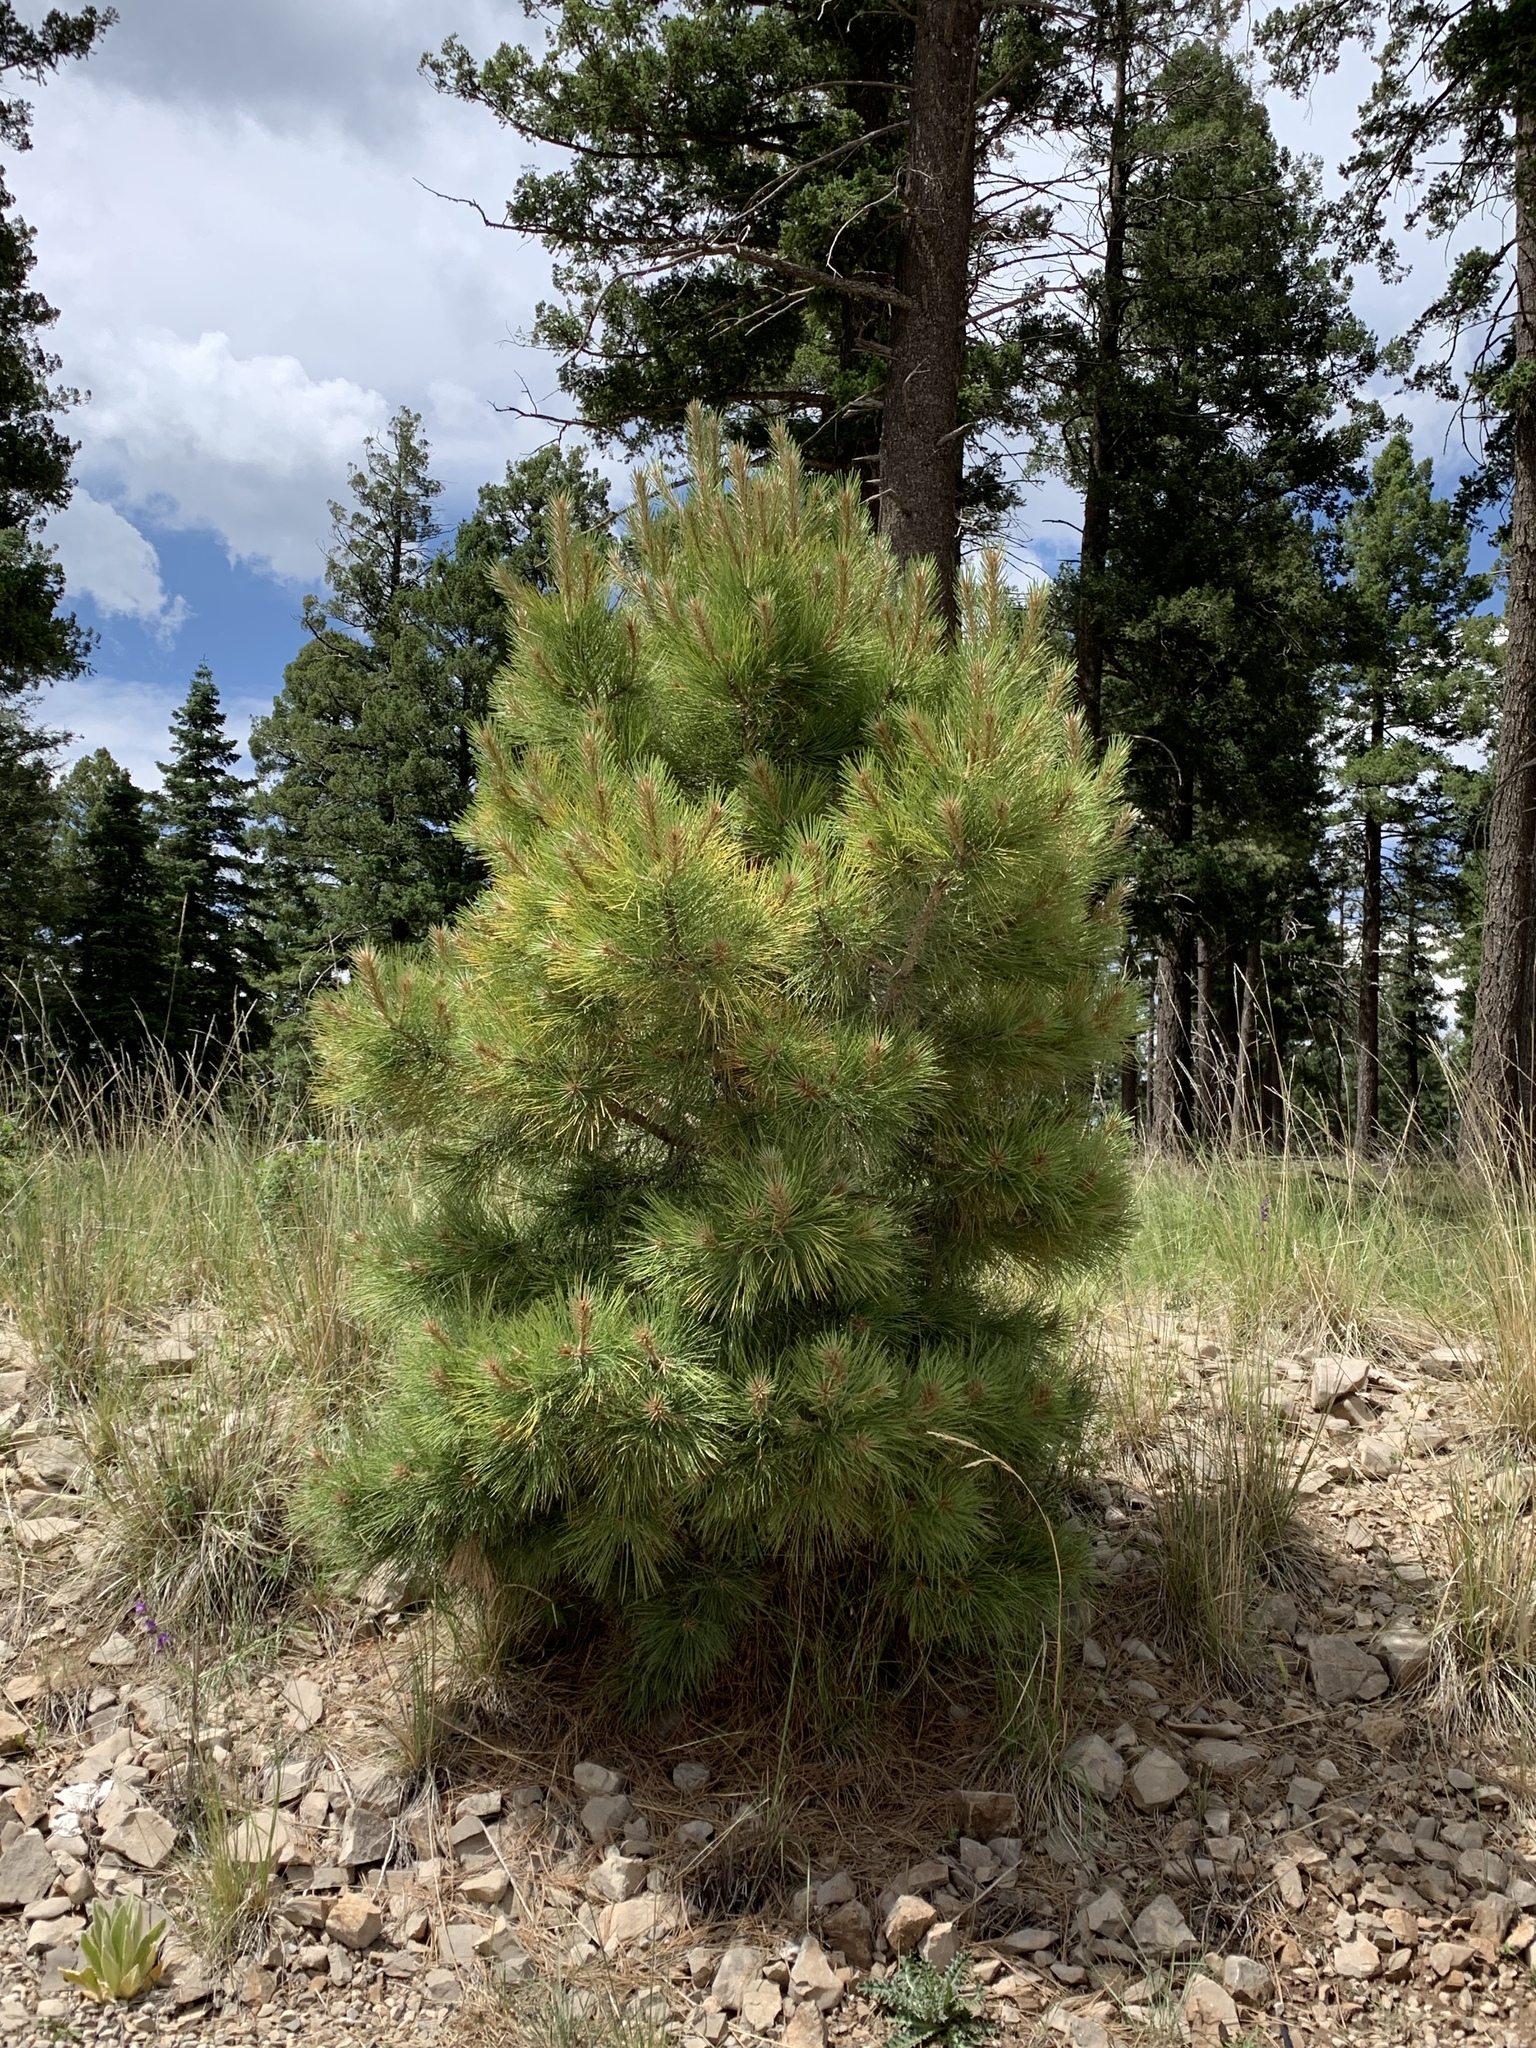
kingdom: Plantae
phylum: Tracheophyta
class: Pinopsida
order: Pinales
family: Pinaceae
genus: Pinus
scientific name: Pinus ponderosa
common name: Western yellow-pine
